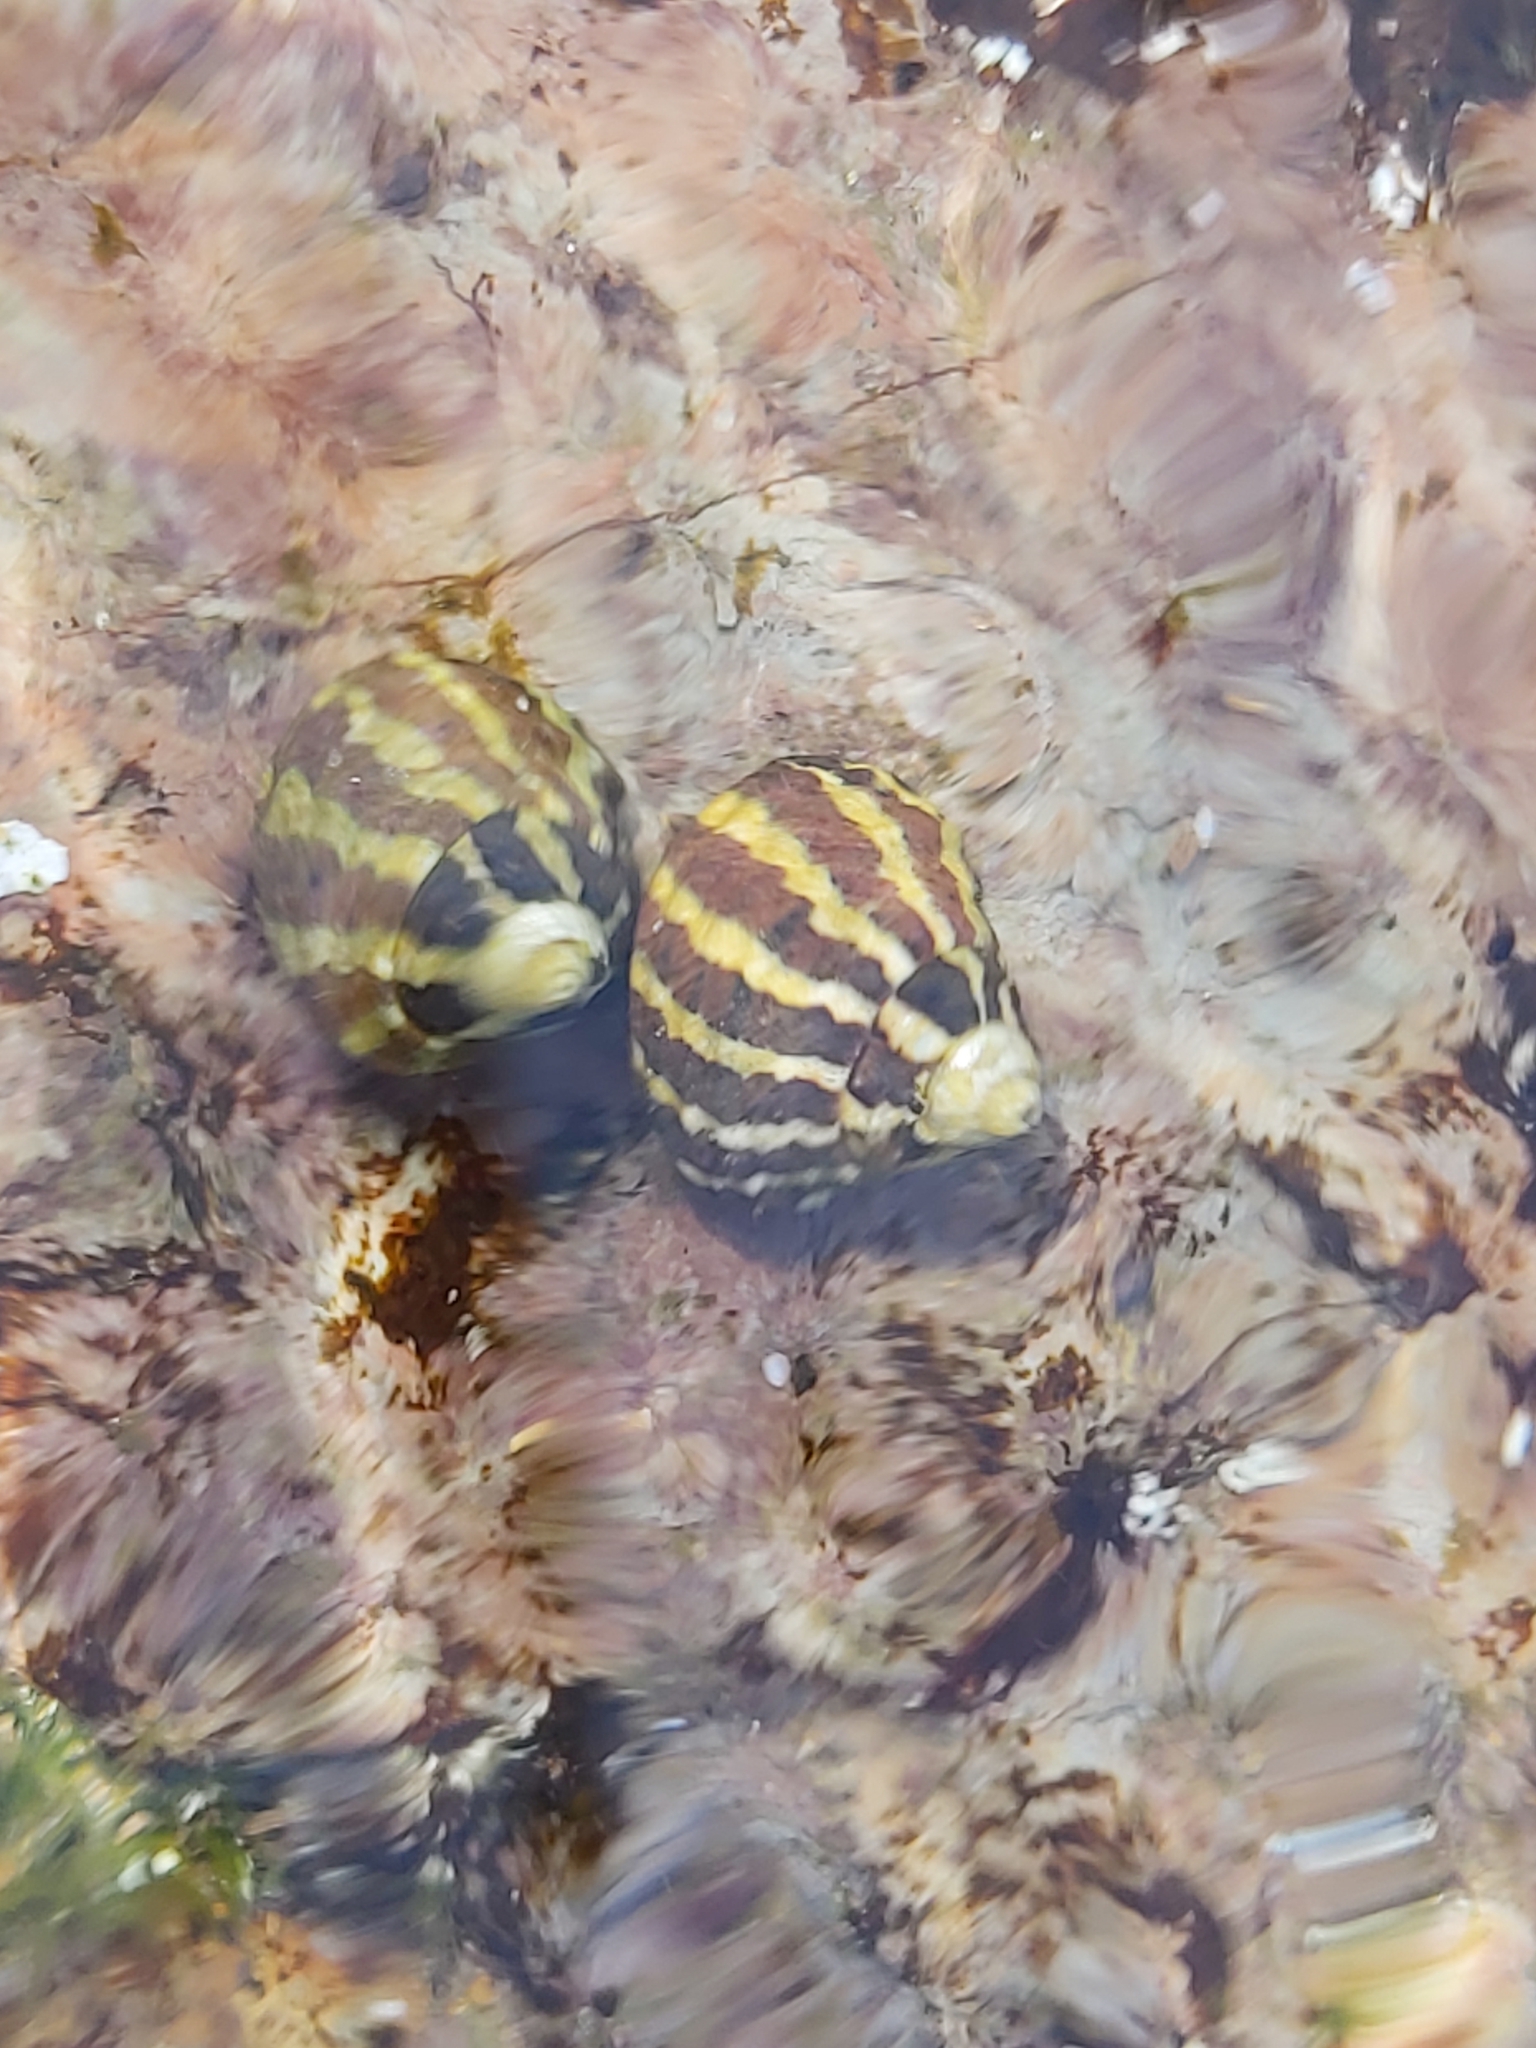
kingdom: Animalia
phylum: Mollusca
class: Gastropoda
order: Trochida
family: Trochidae
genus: Austrocochlea
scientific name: Austrocochlea porcata
